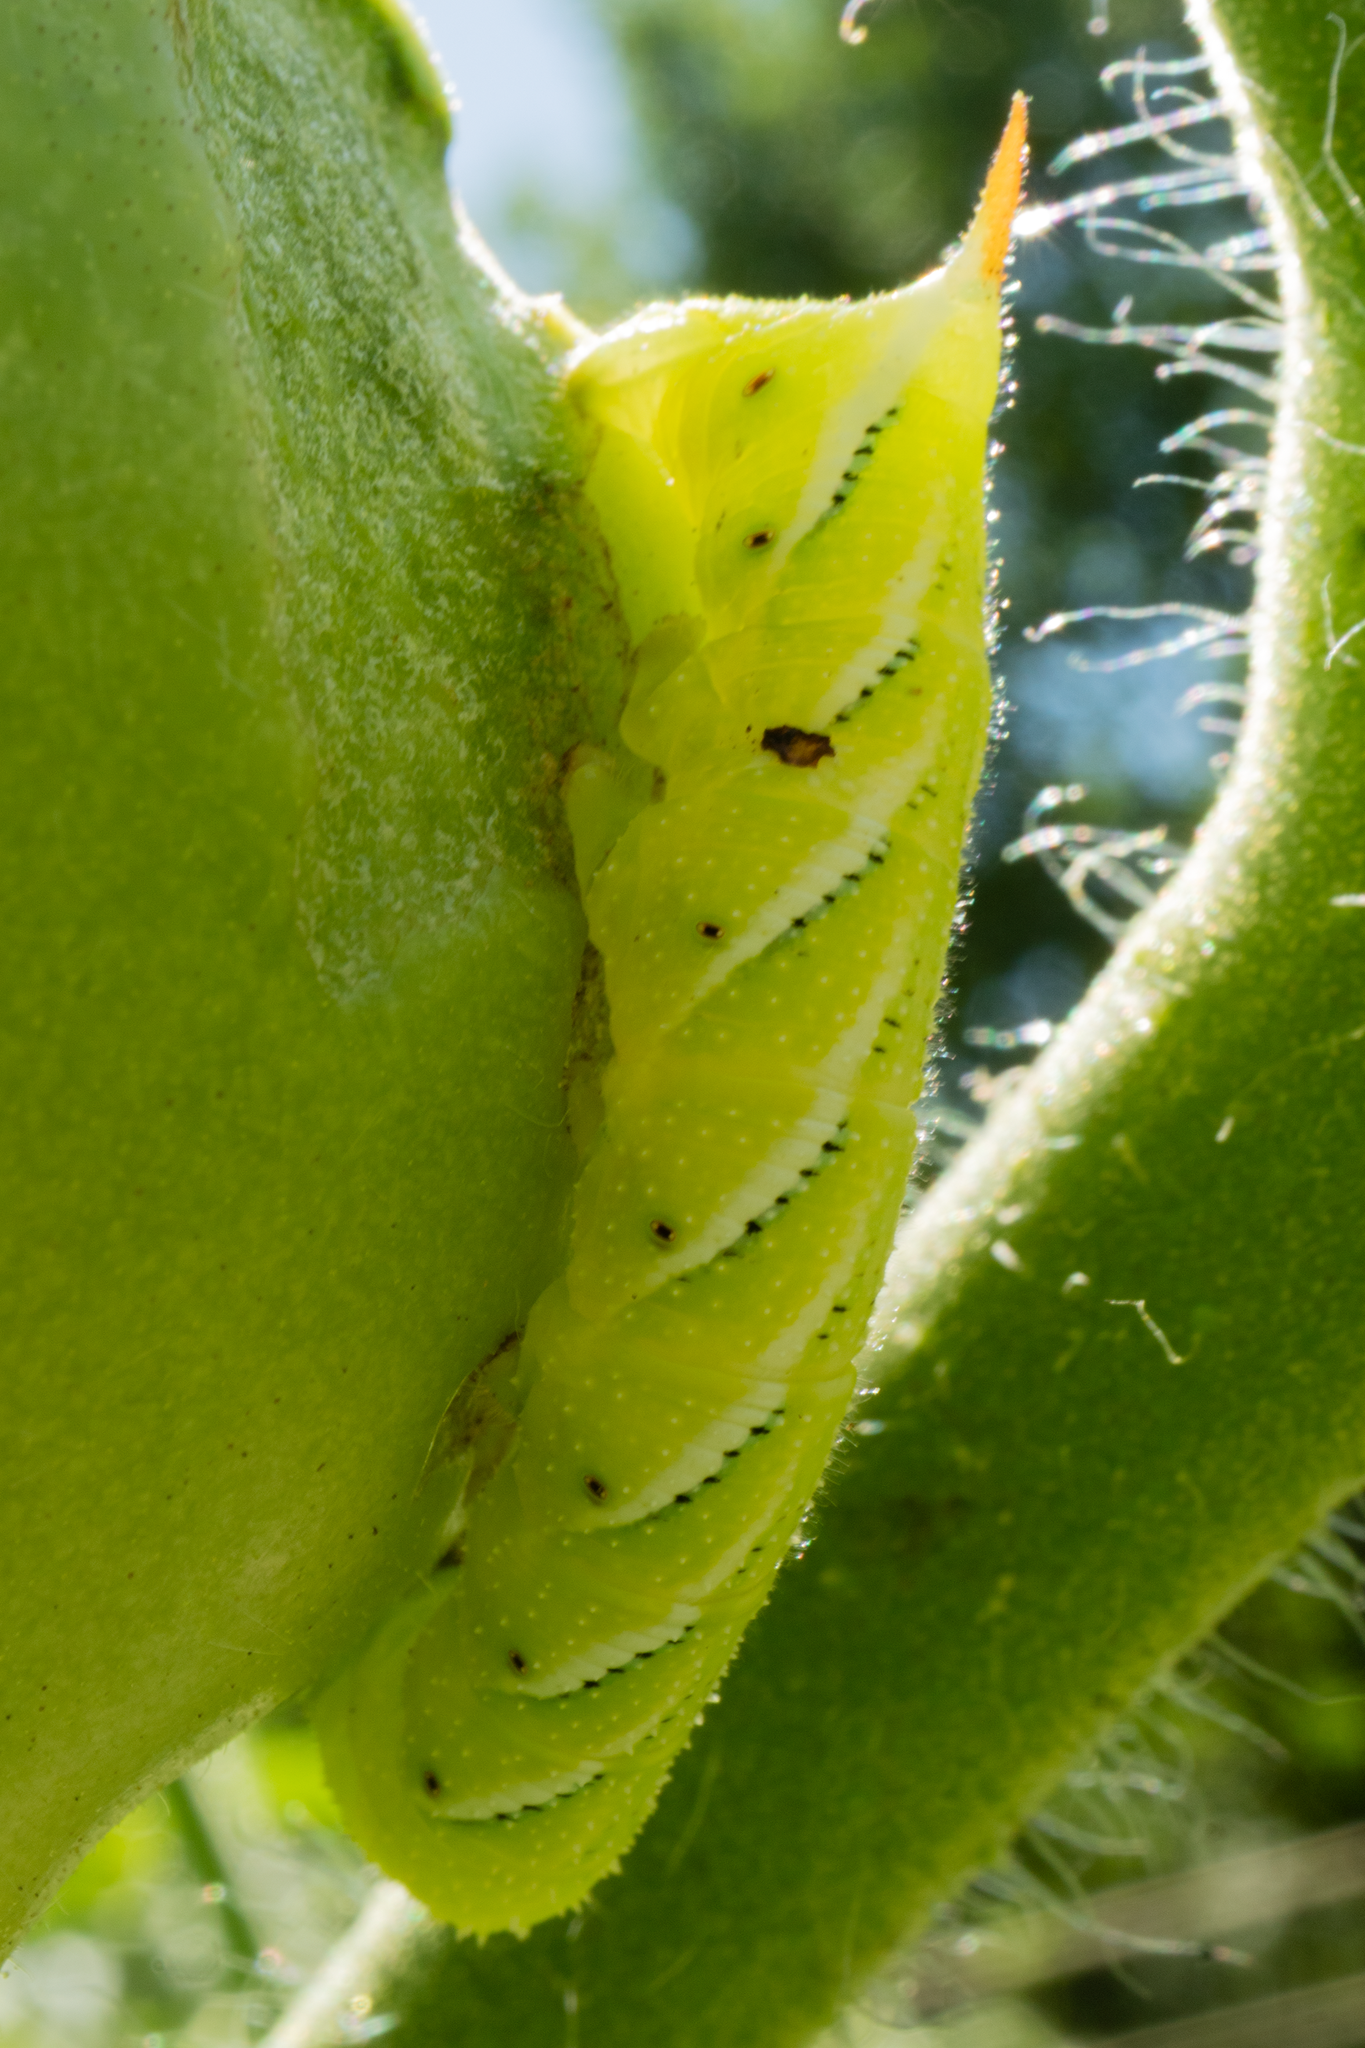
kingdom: Animalia
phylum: Arthropoda
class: Insecta
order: Lepidoptera
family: Sphingidae
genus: Manduca
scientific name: Manduca sexta
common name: Carolina sphinx
